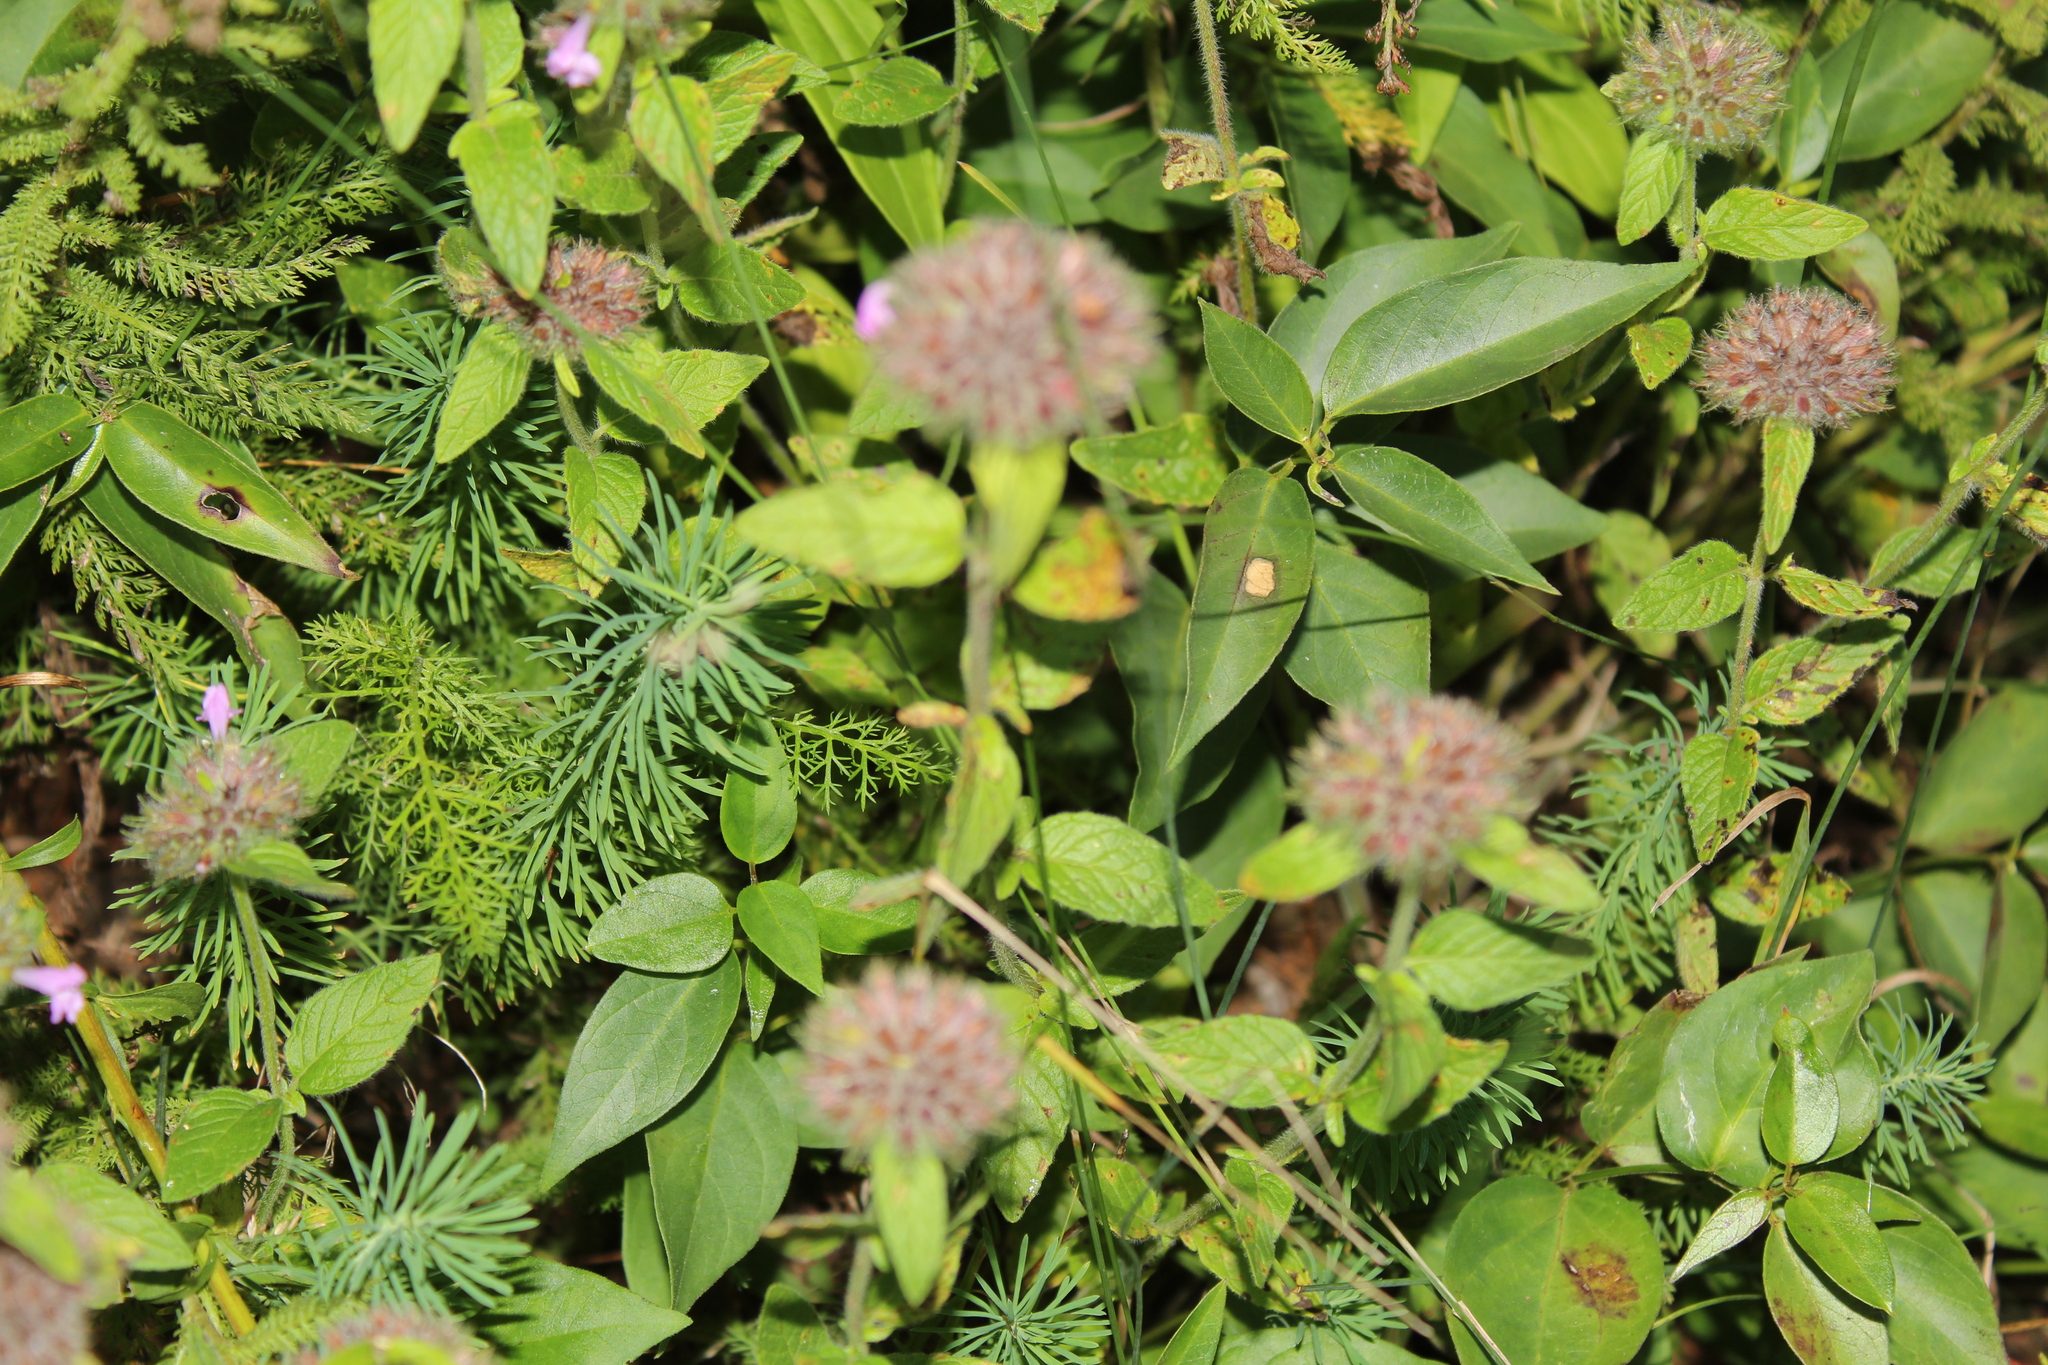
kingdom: Plantae
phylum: Tracheophyta
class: Magnoliopsida
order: Lamiales
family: Lamiaceae
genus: Clinopodium
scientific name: Clinopodium vulgare
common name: Wild basil
